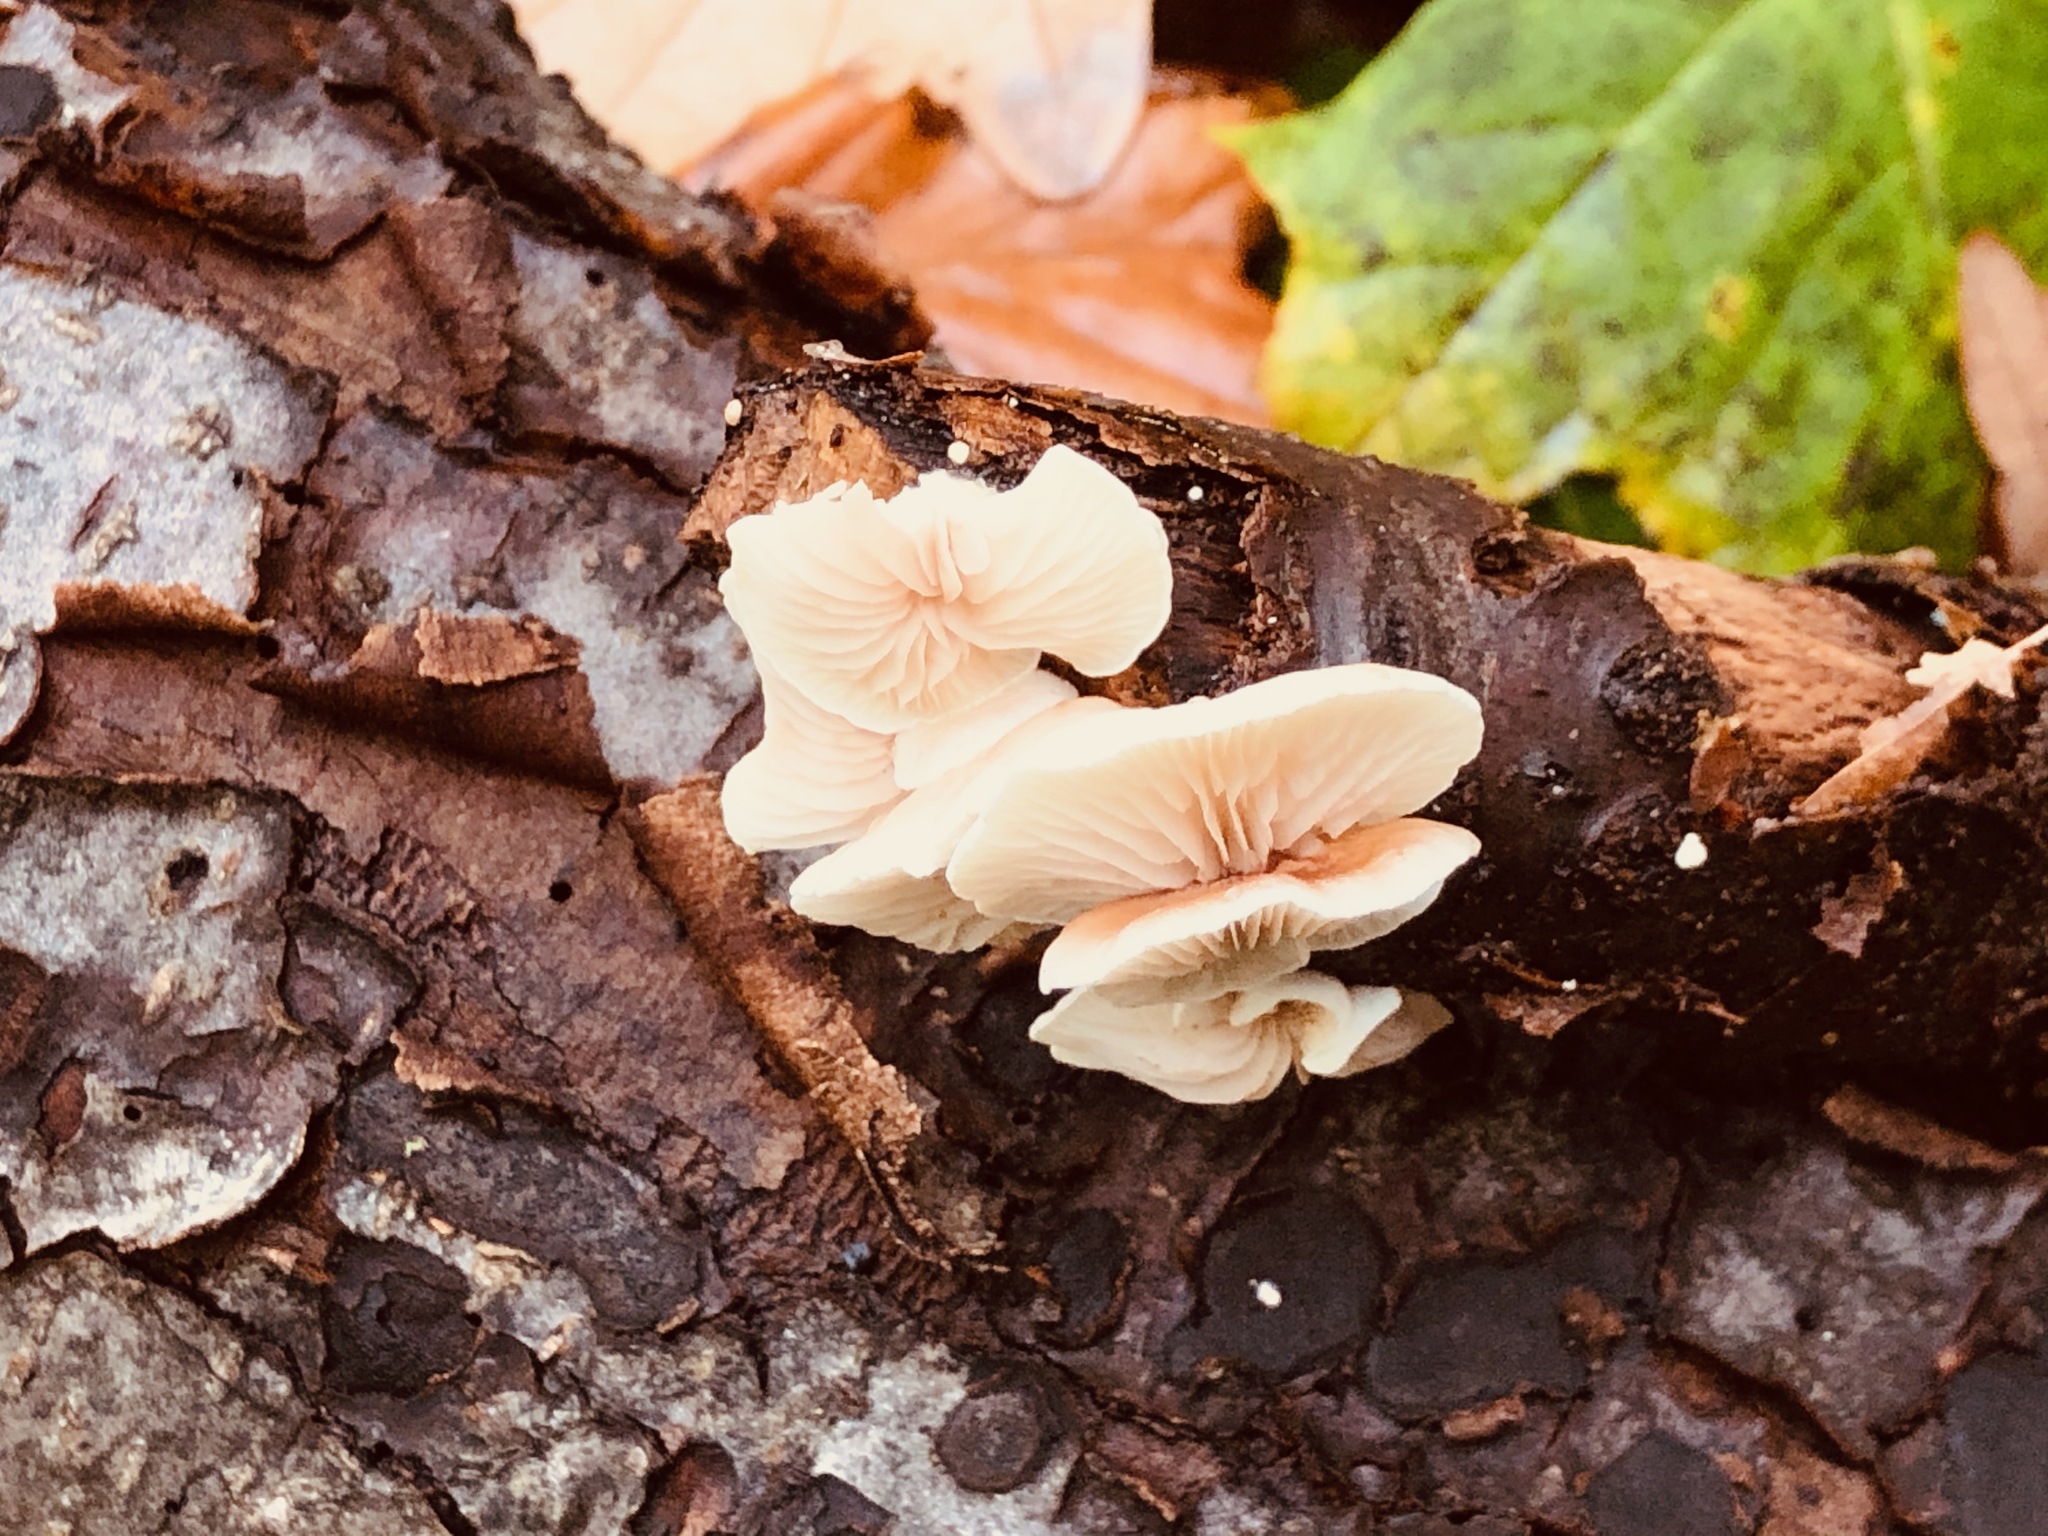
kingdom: Fungi
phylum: Basidiomycota
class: Agaricomycetes
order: Agaricales
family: Crepidotaceae
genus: Crepidotus
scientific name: Crepidotus variabilis
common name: Variable oysterling
